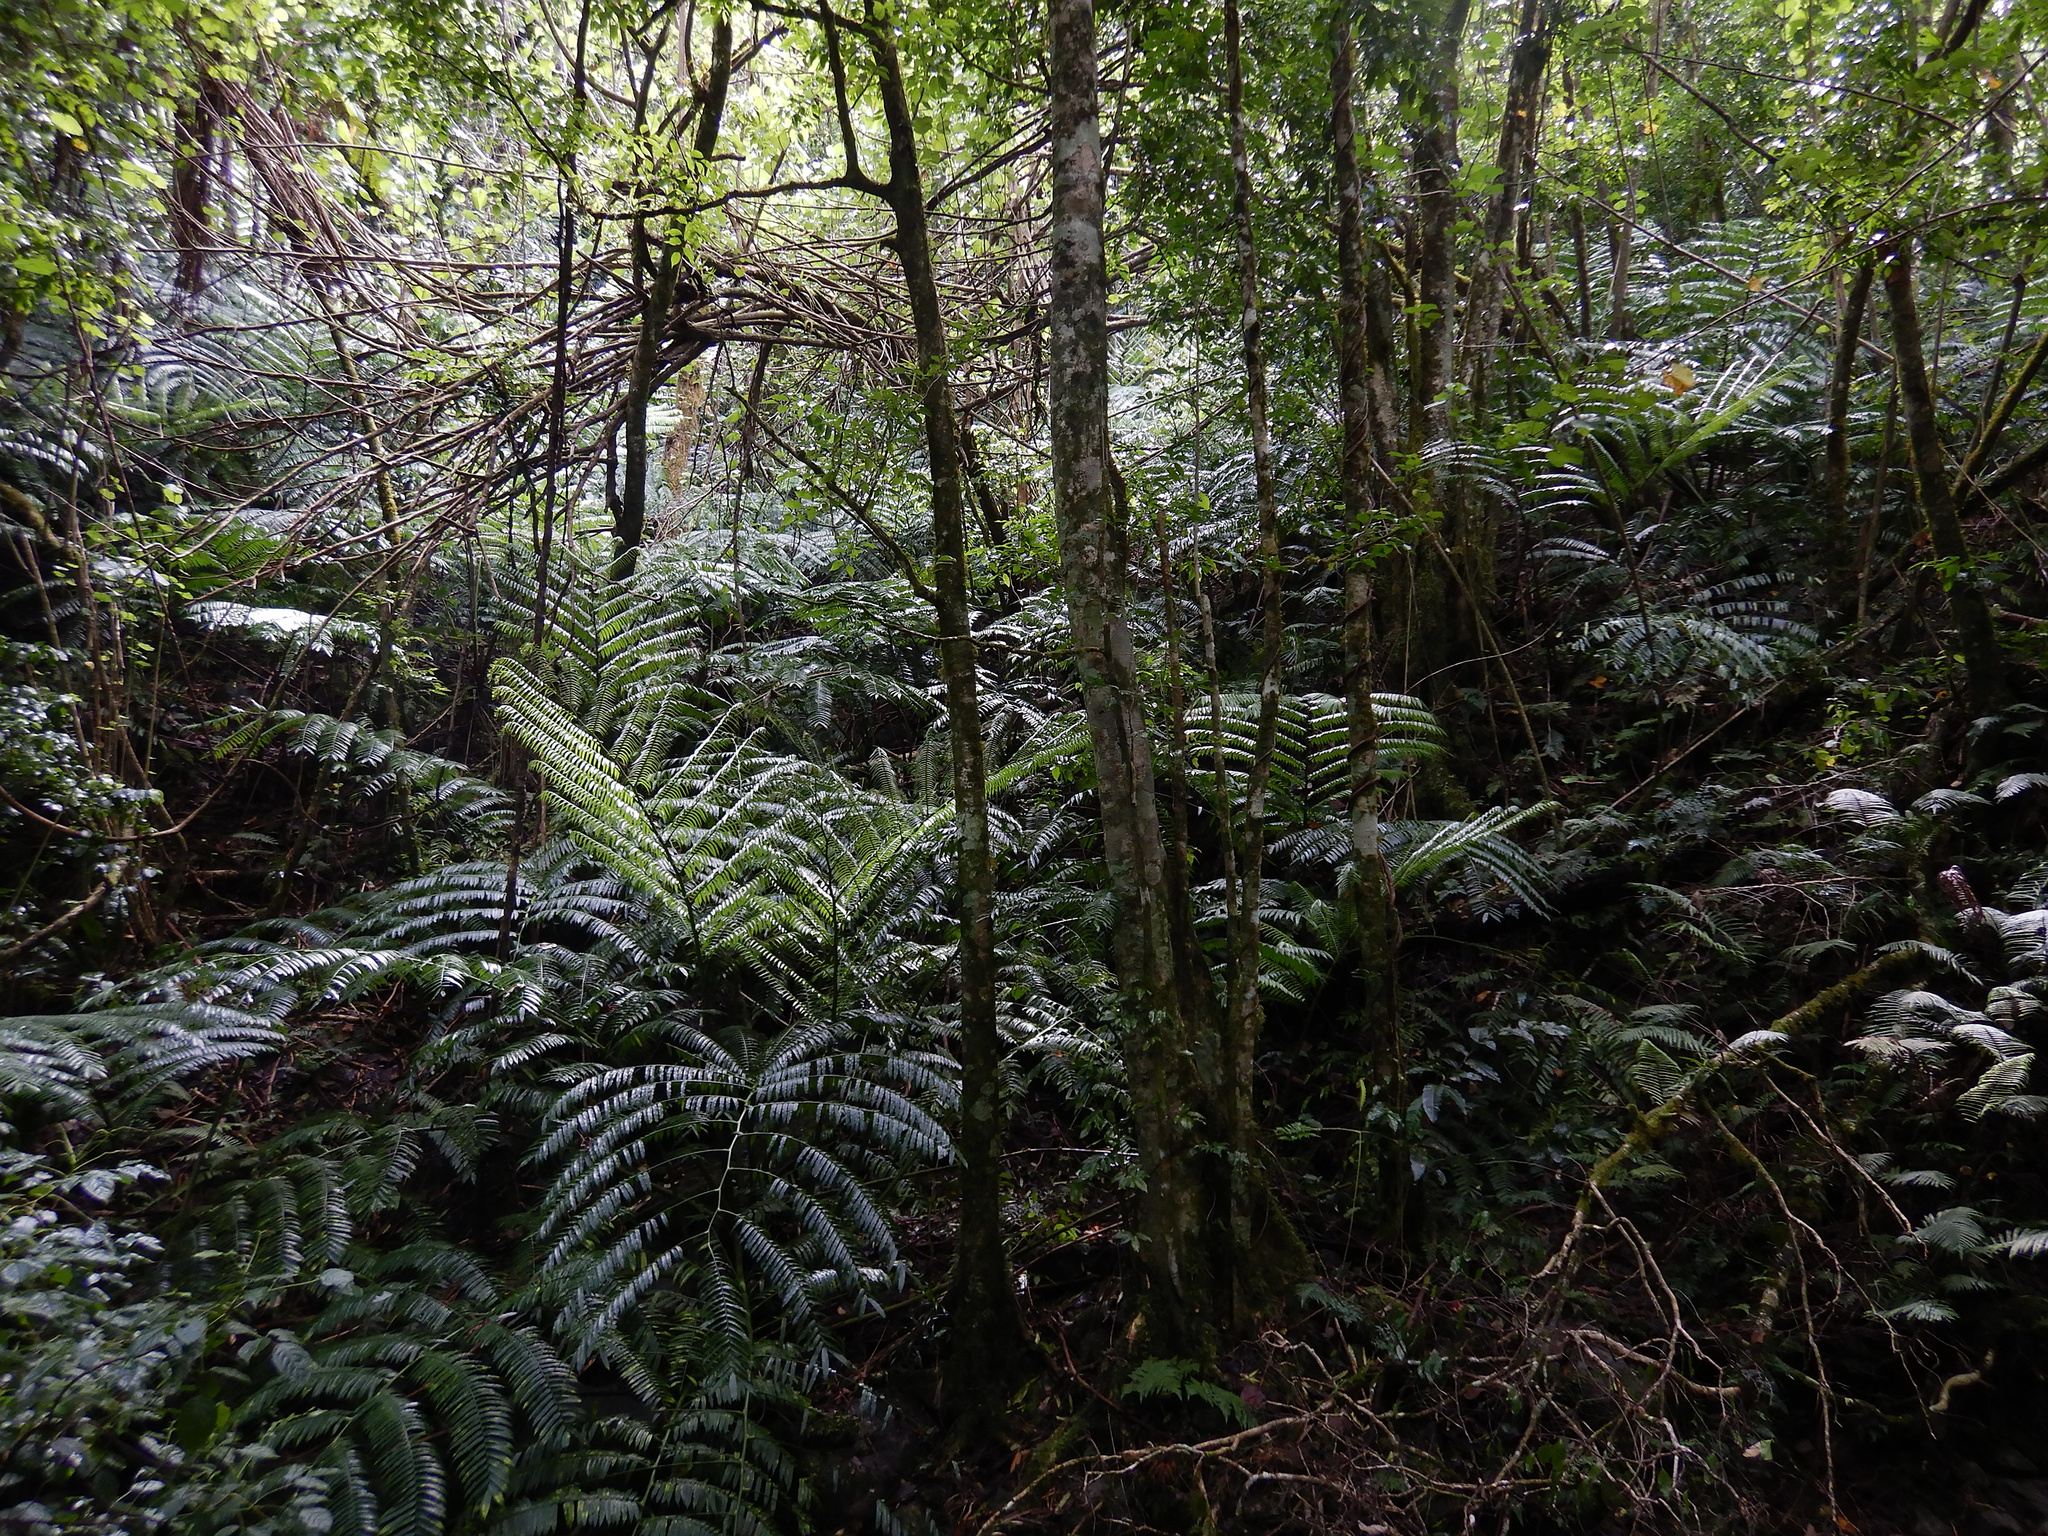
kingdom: Plantae
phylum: Tracheophyta
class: Polypodiopsida
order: Marattiales
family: Marattiaceae
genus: Angiopteris
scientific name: Angiopteris evecta
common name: Mule's-foot fern
